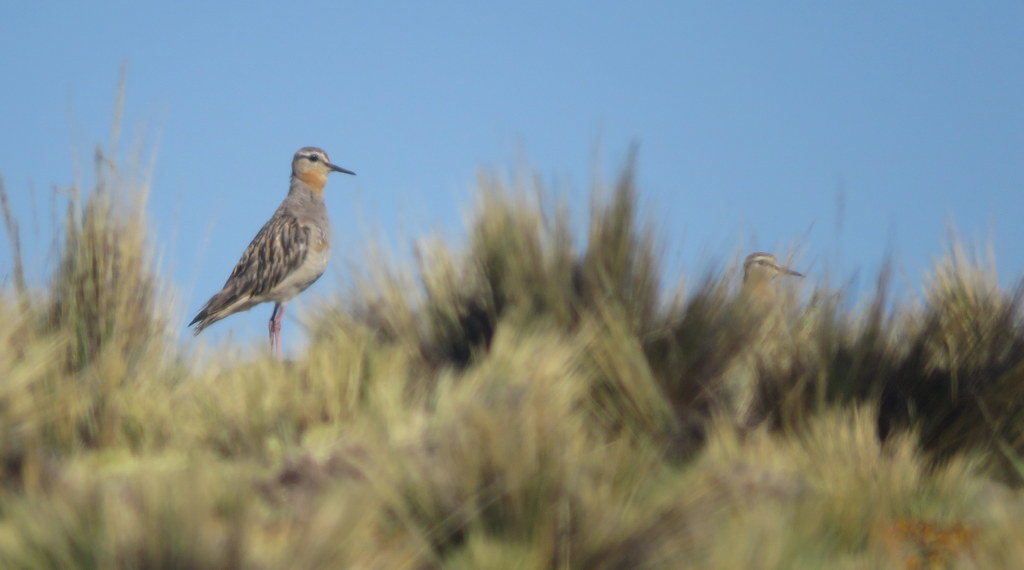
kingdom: Animalia
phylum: Chordata
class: Aves
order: Charadriiformes
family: Charadriidae
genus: Oreopholus
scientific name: Oreopholus ruficollis
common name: Tawny-throated dotterel
